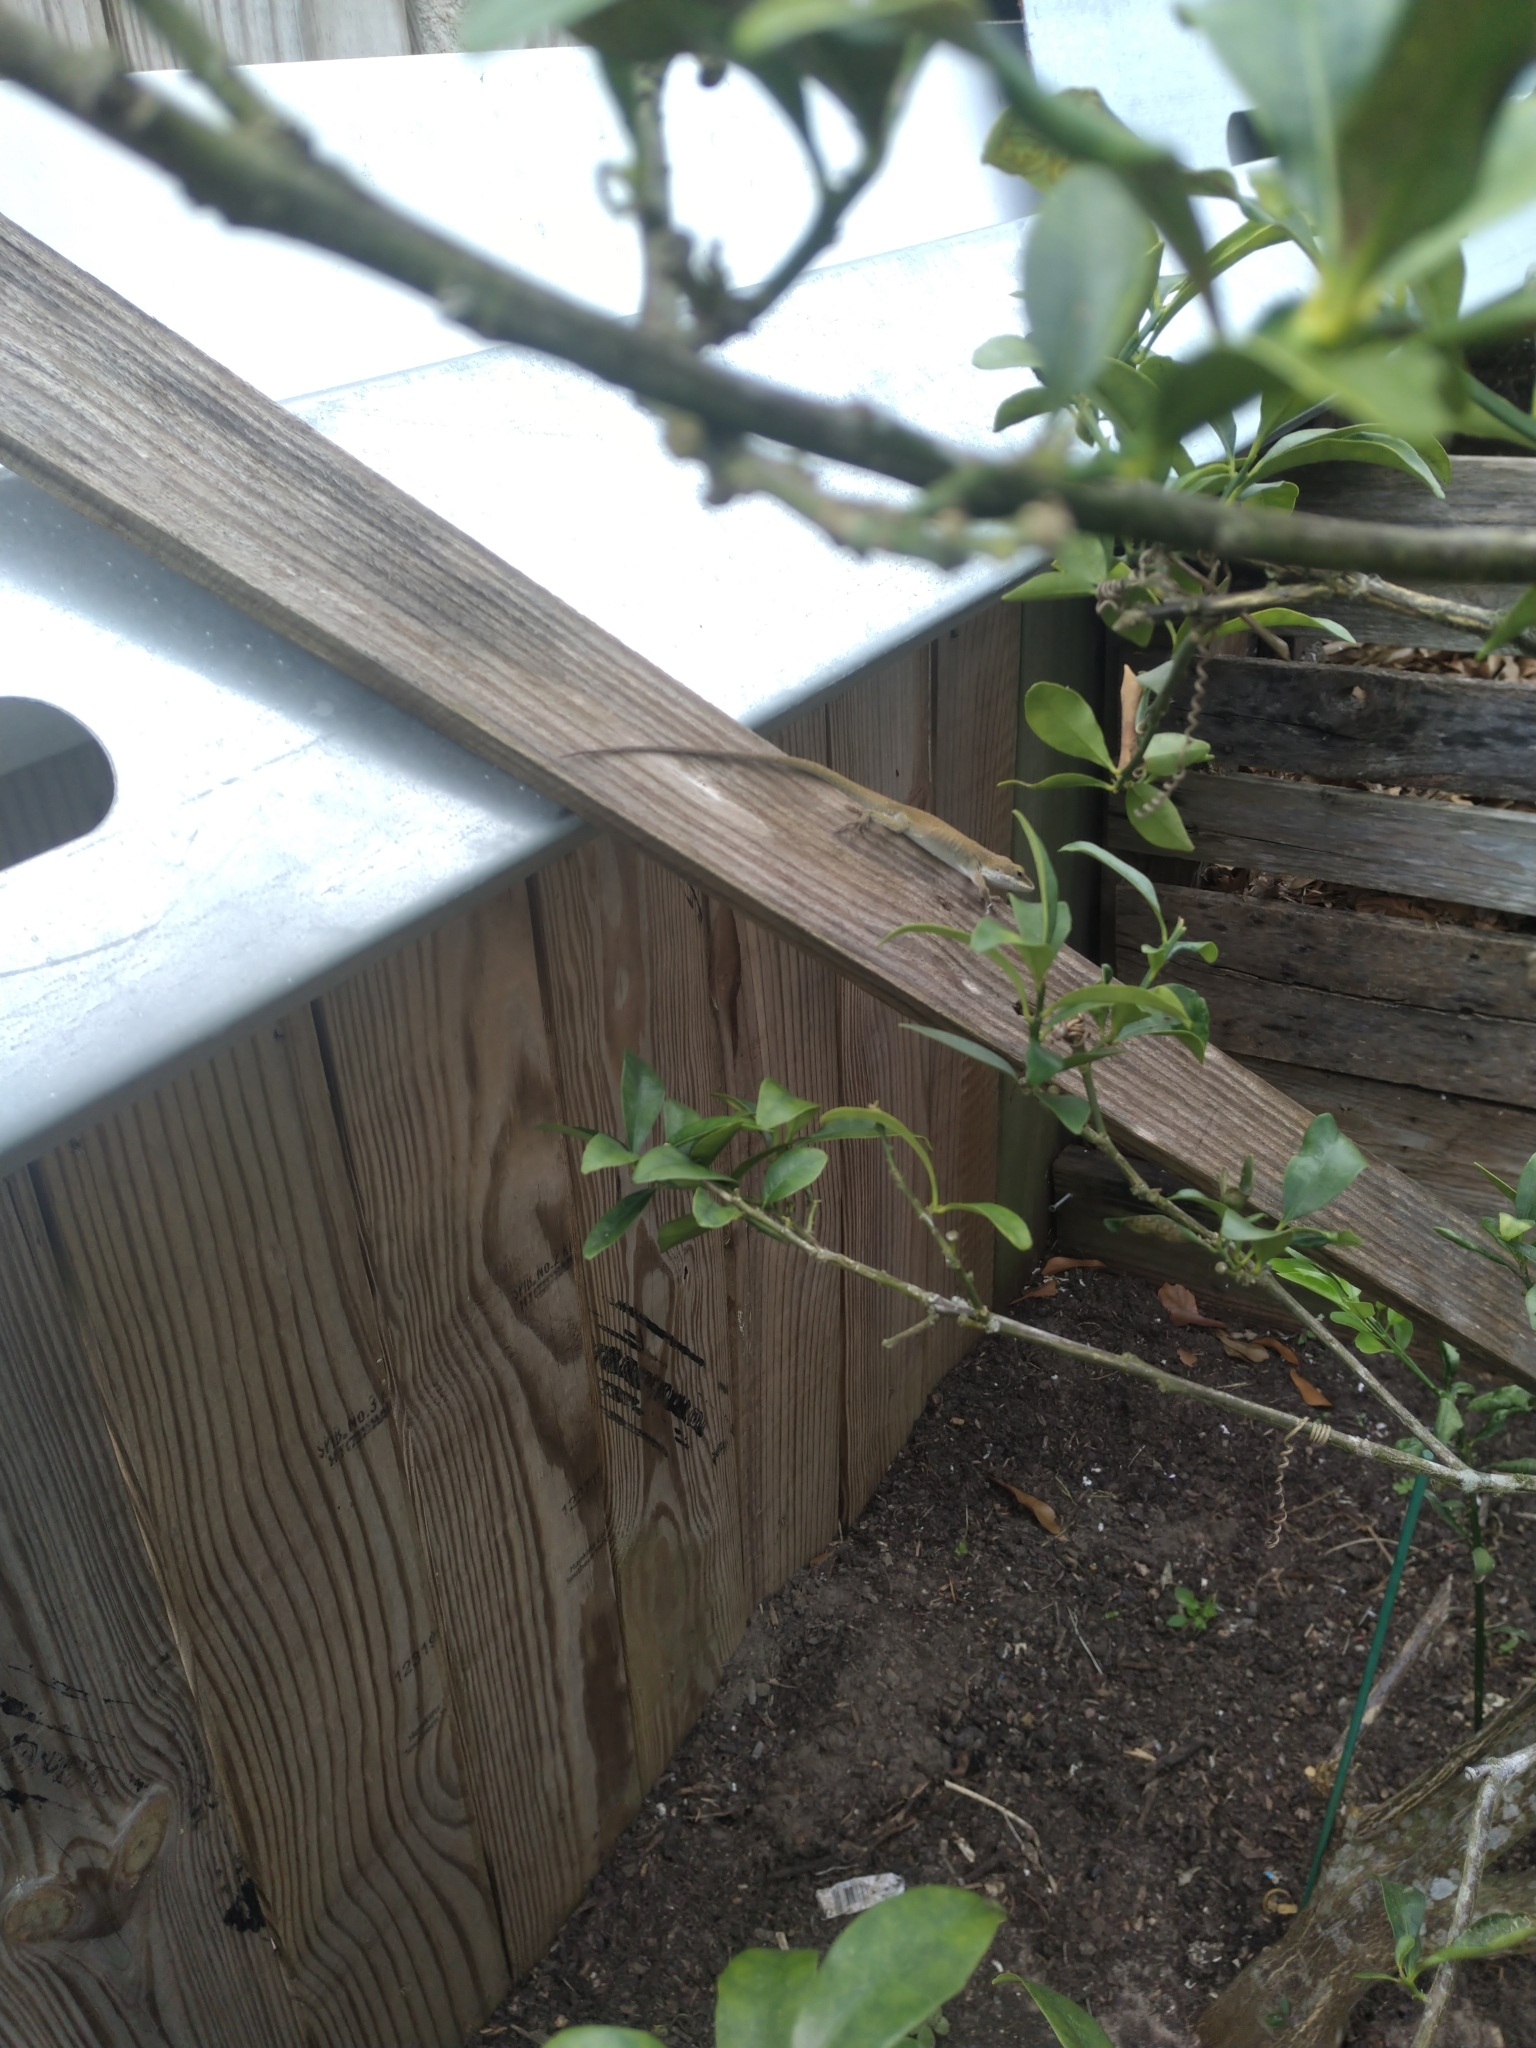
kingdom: Animalia
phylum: Chordata
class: Squamata
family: Dactyloidae
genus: Anolis
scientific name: Anolis carolinensis
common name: Green anole
